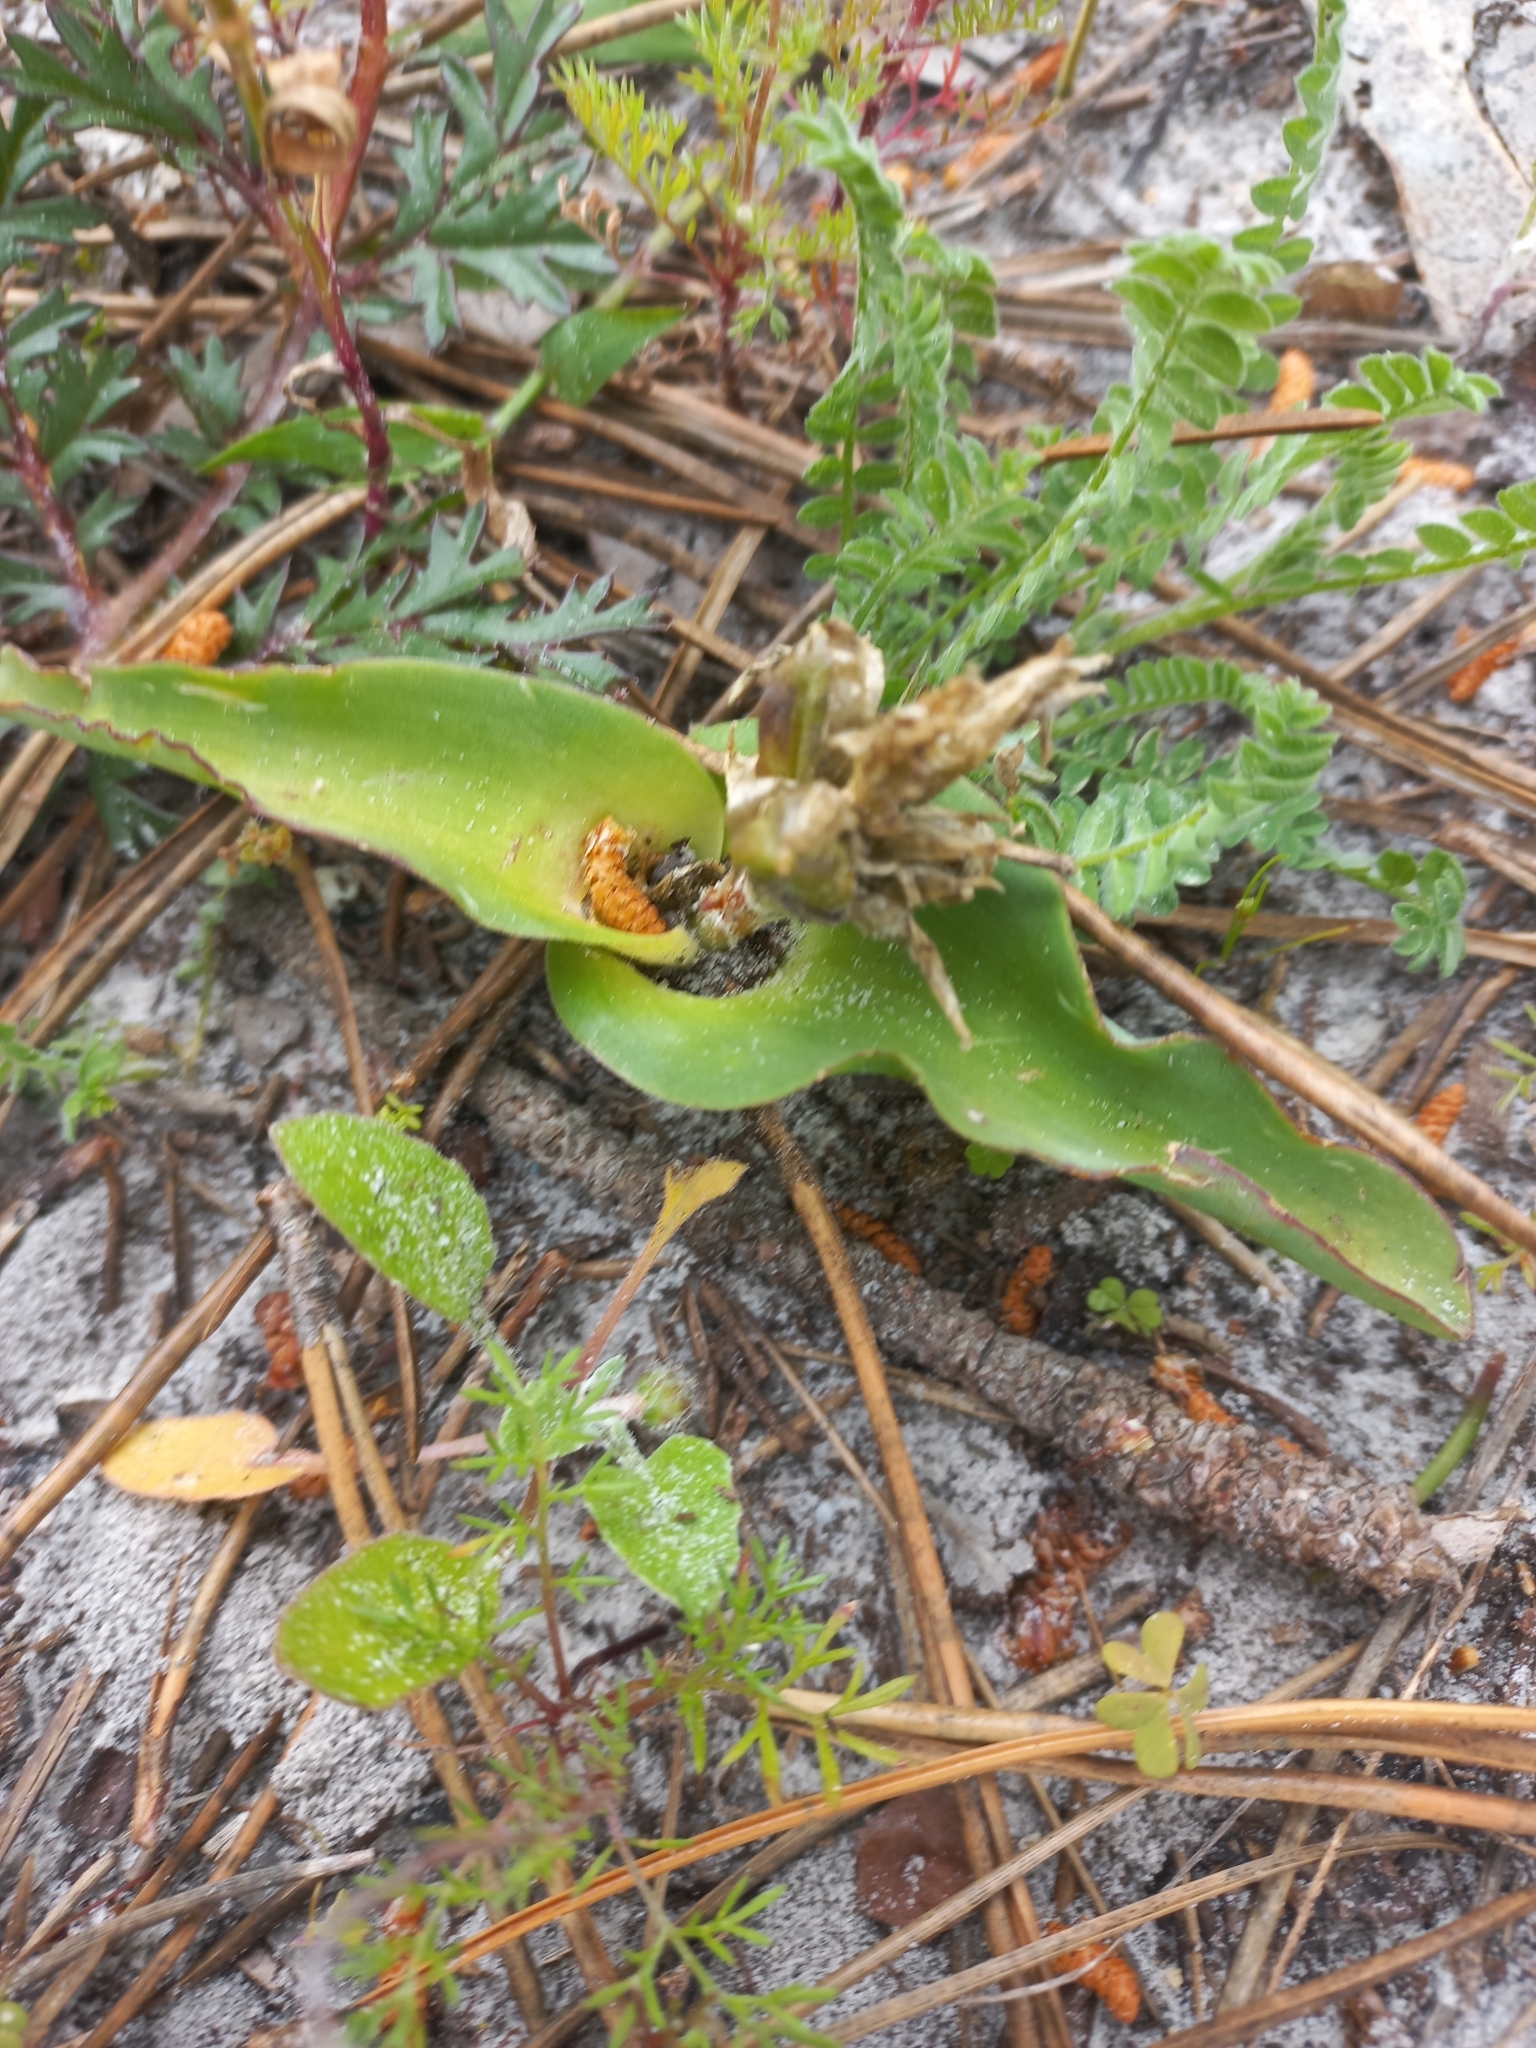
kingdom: Plantae
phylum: Tracheophyta
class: Liliopsida
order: Asparagales
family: Asparagaceae
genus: Lachenalia
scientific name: Lachenalia reflexa
